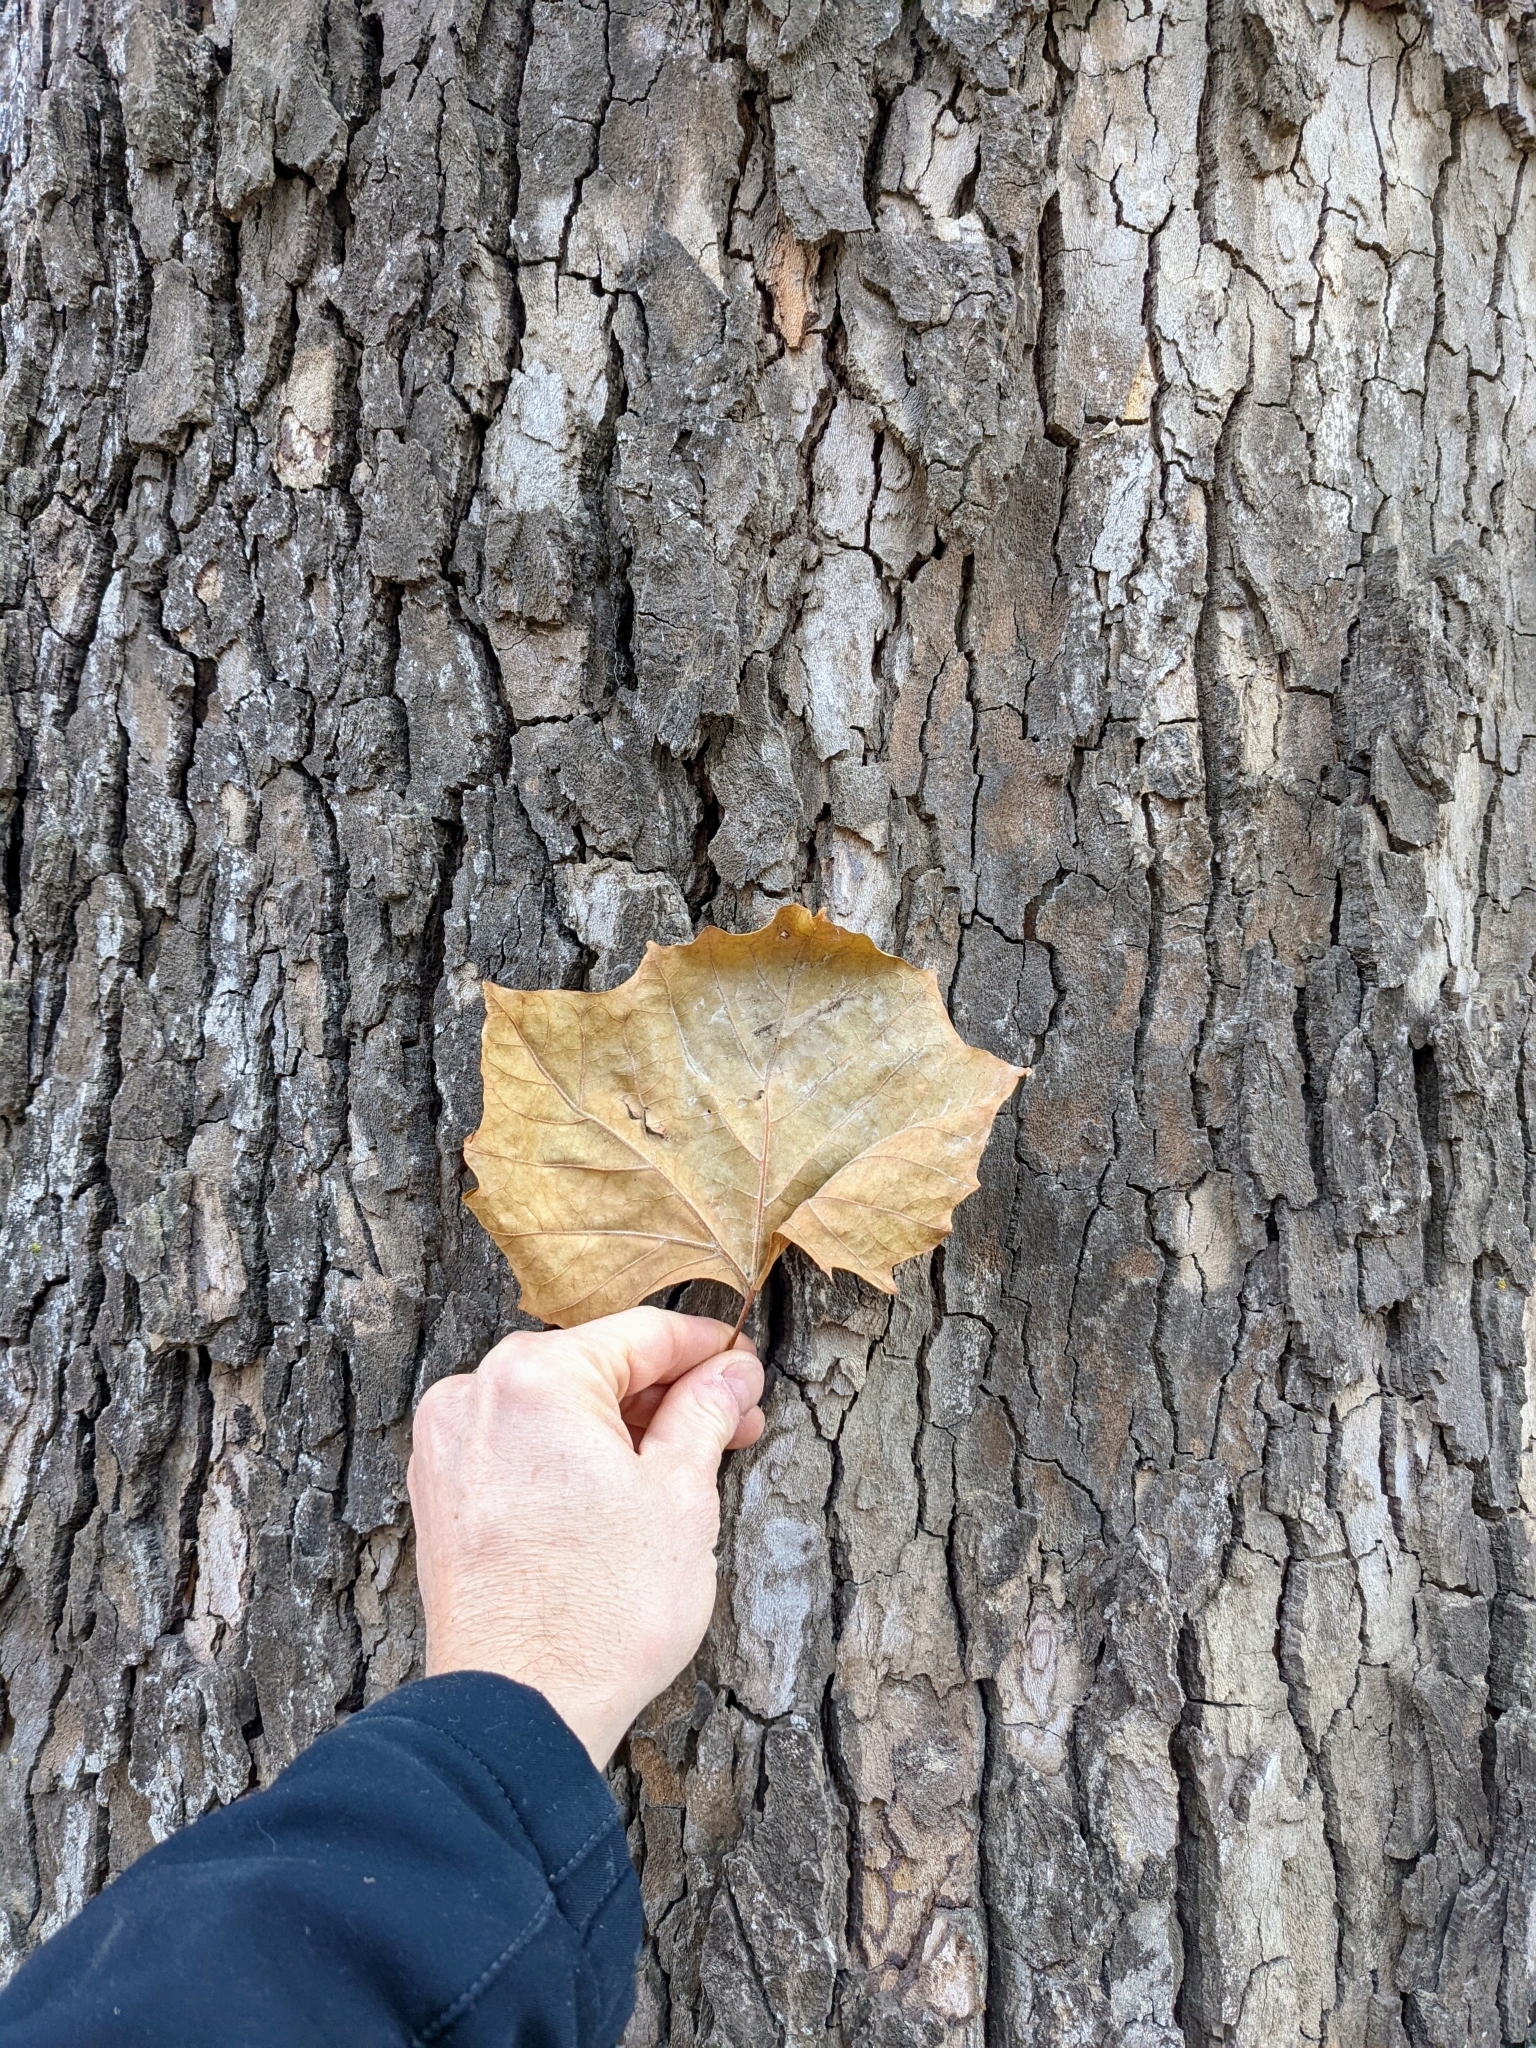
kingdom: Plantae
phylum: Tracheophyta
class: Magnoliopsida
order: Proteales
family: Platanaceae
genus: Platanus
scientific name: Platanus occidentalis
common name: American sycamore
